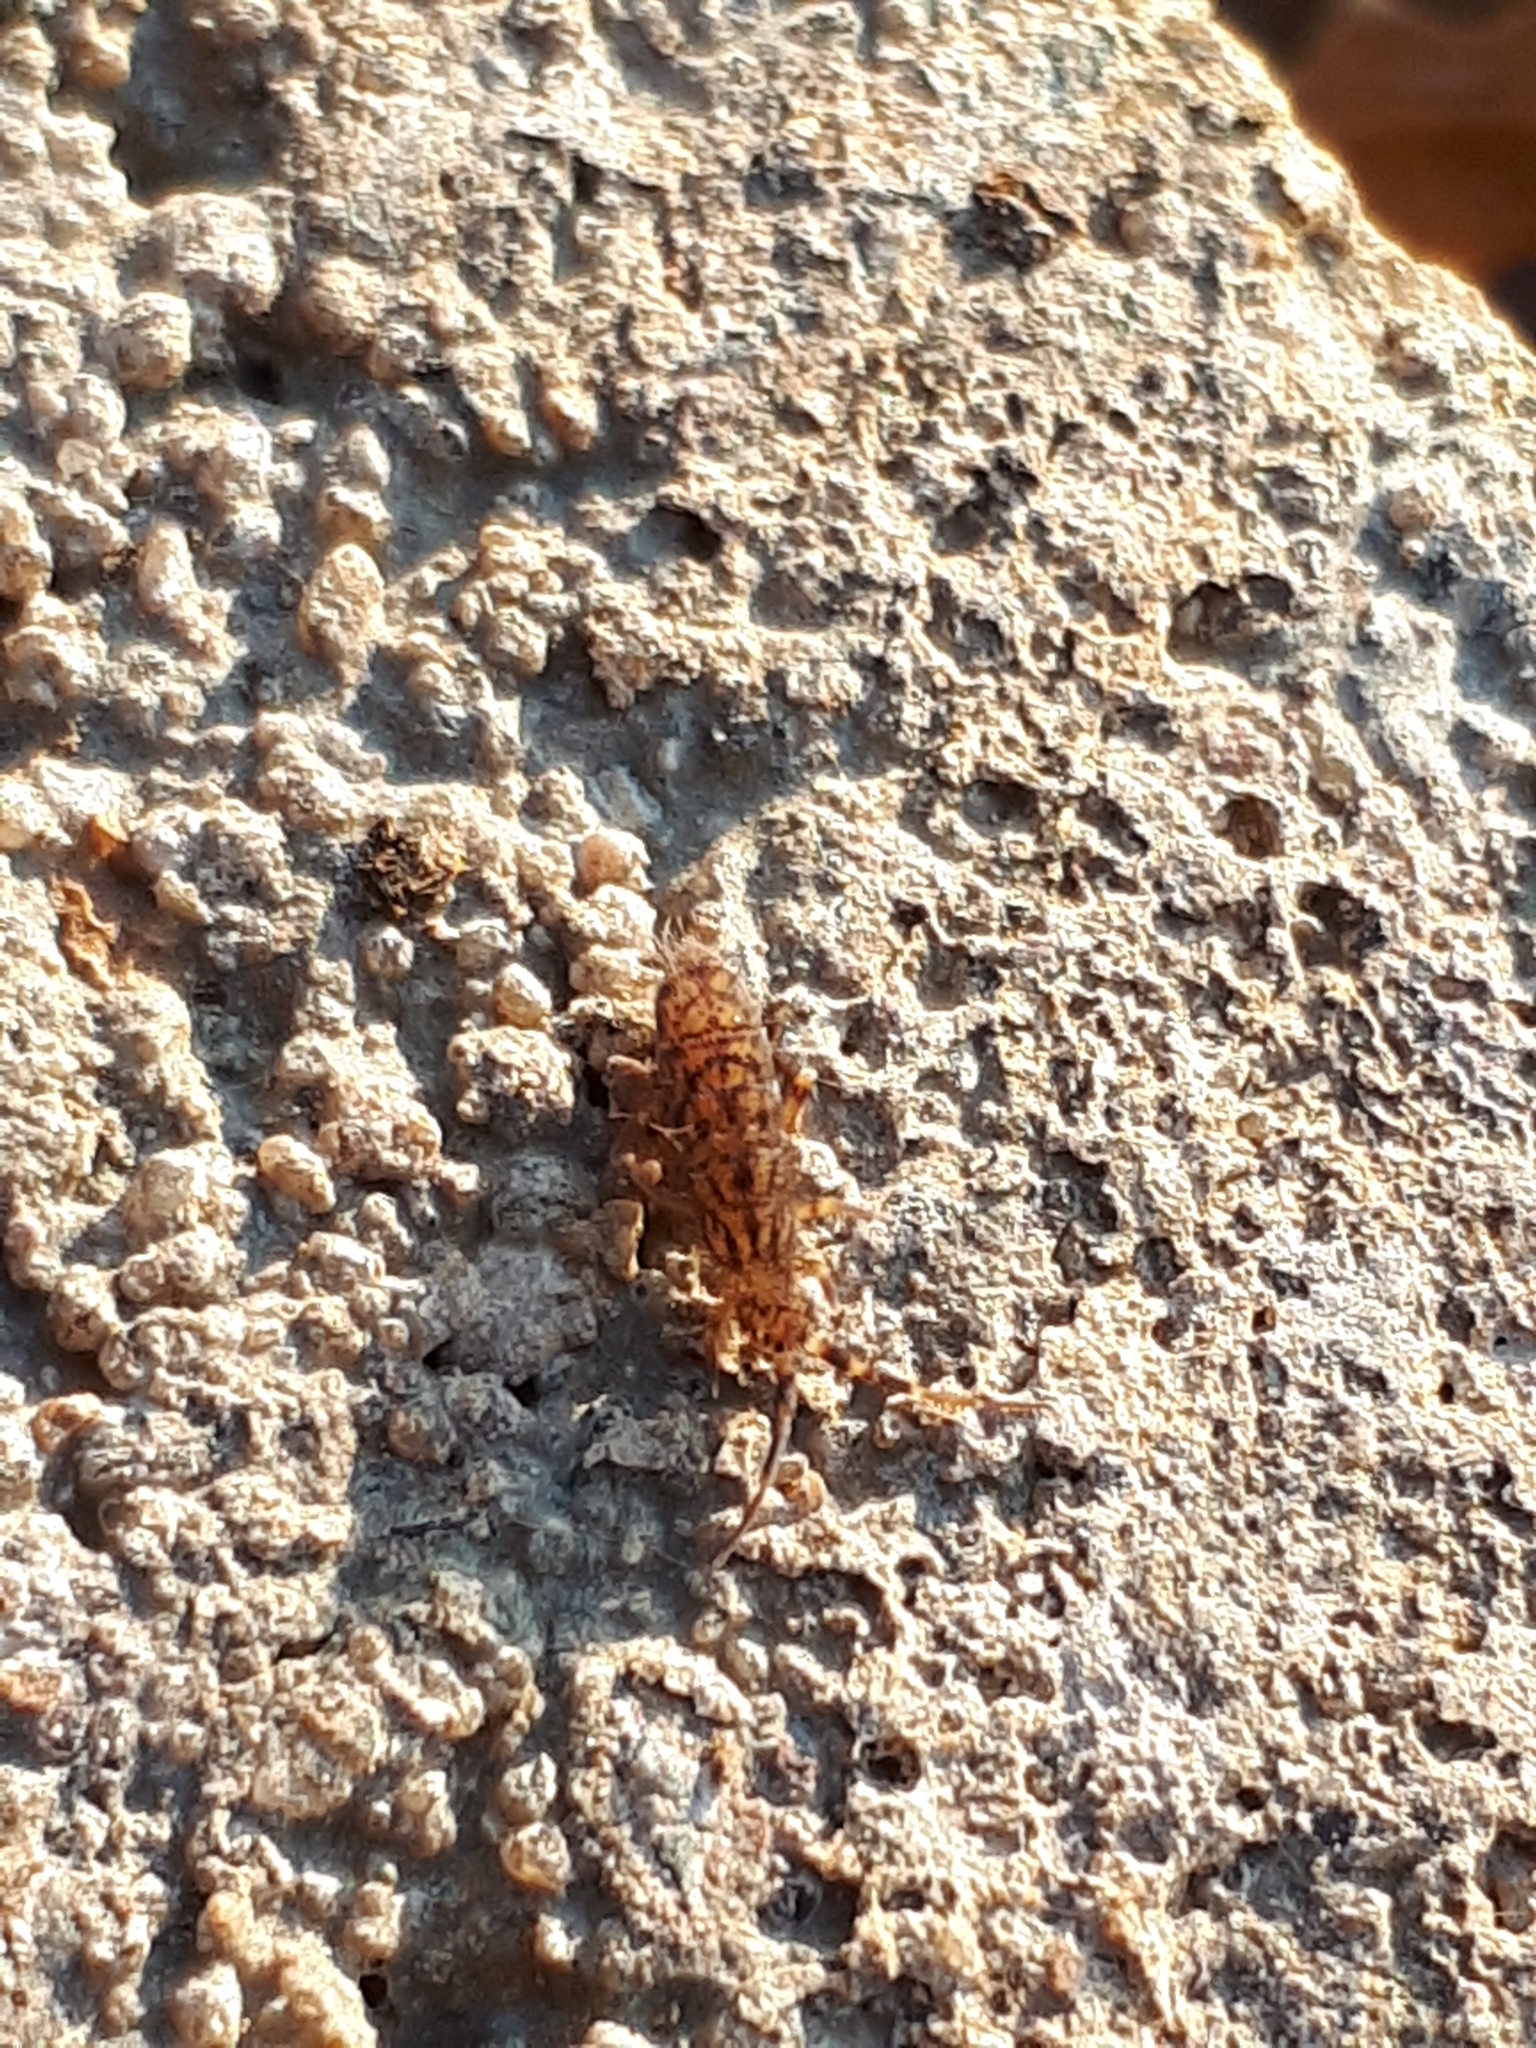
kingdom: Animalia
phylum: Arthropoda
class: Collembola
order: Entomobryomorpha
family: Orchesellidae
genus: Orchesella
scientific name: Orchesella villosa
